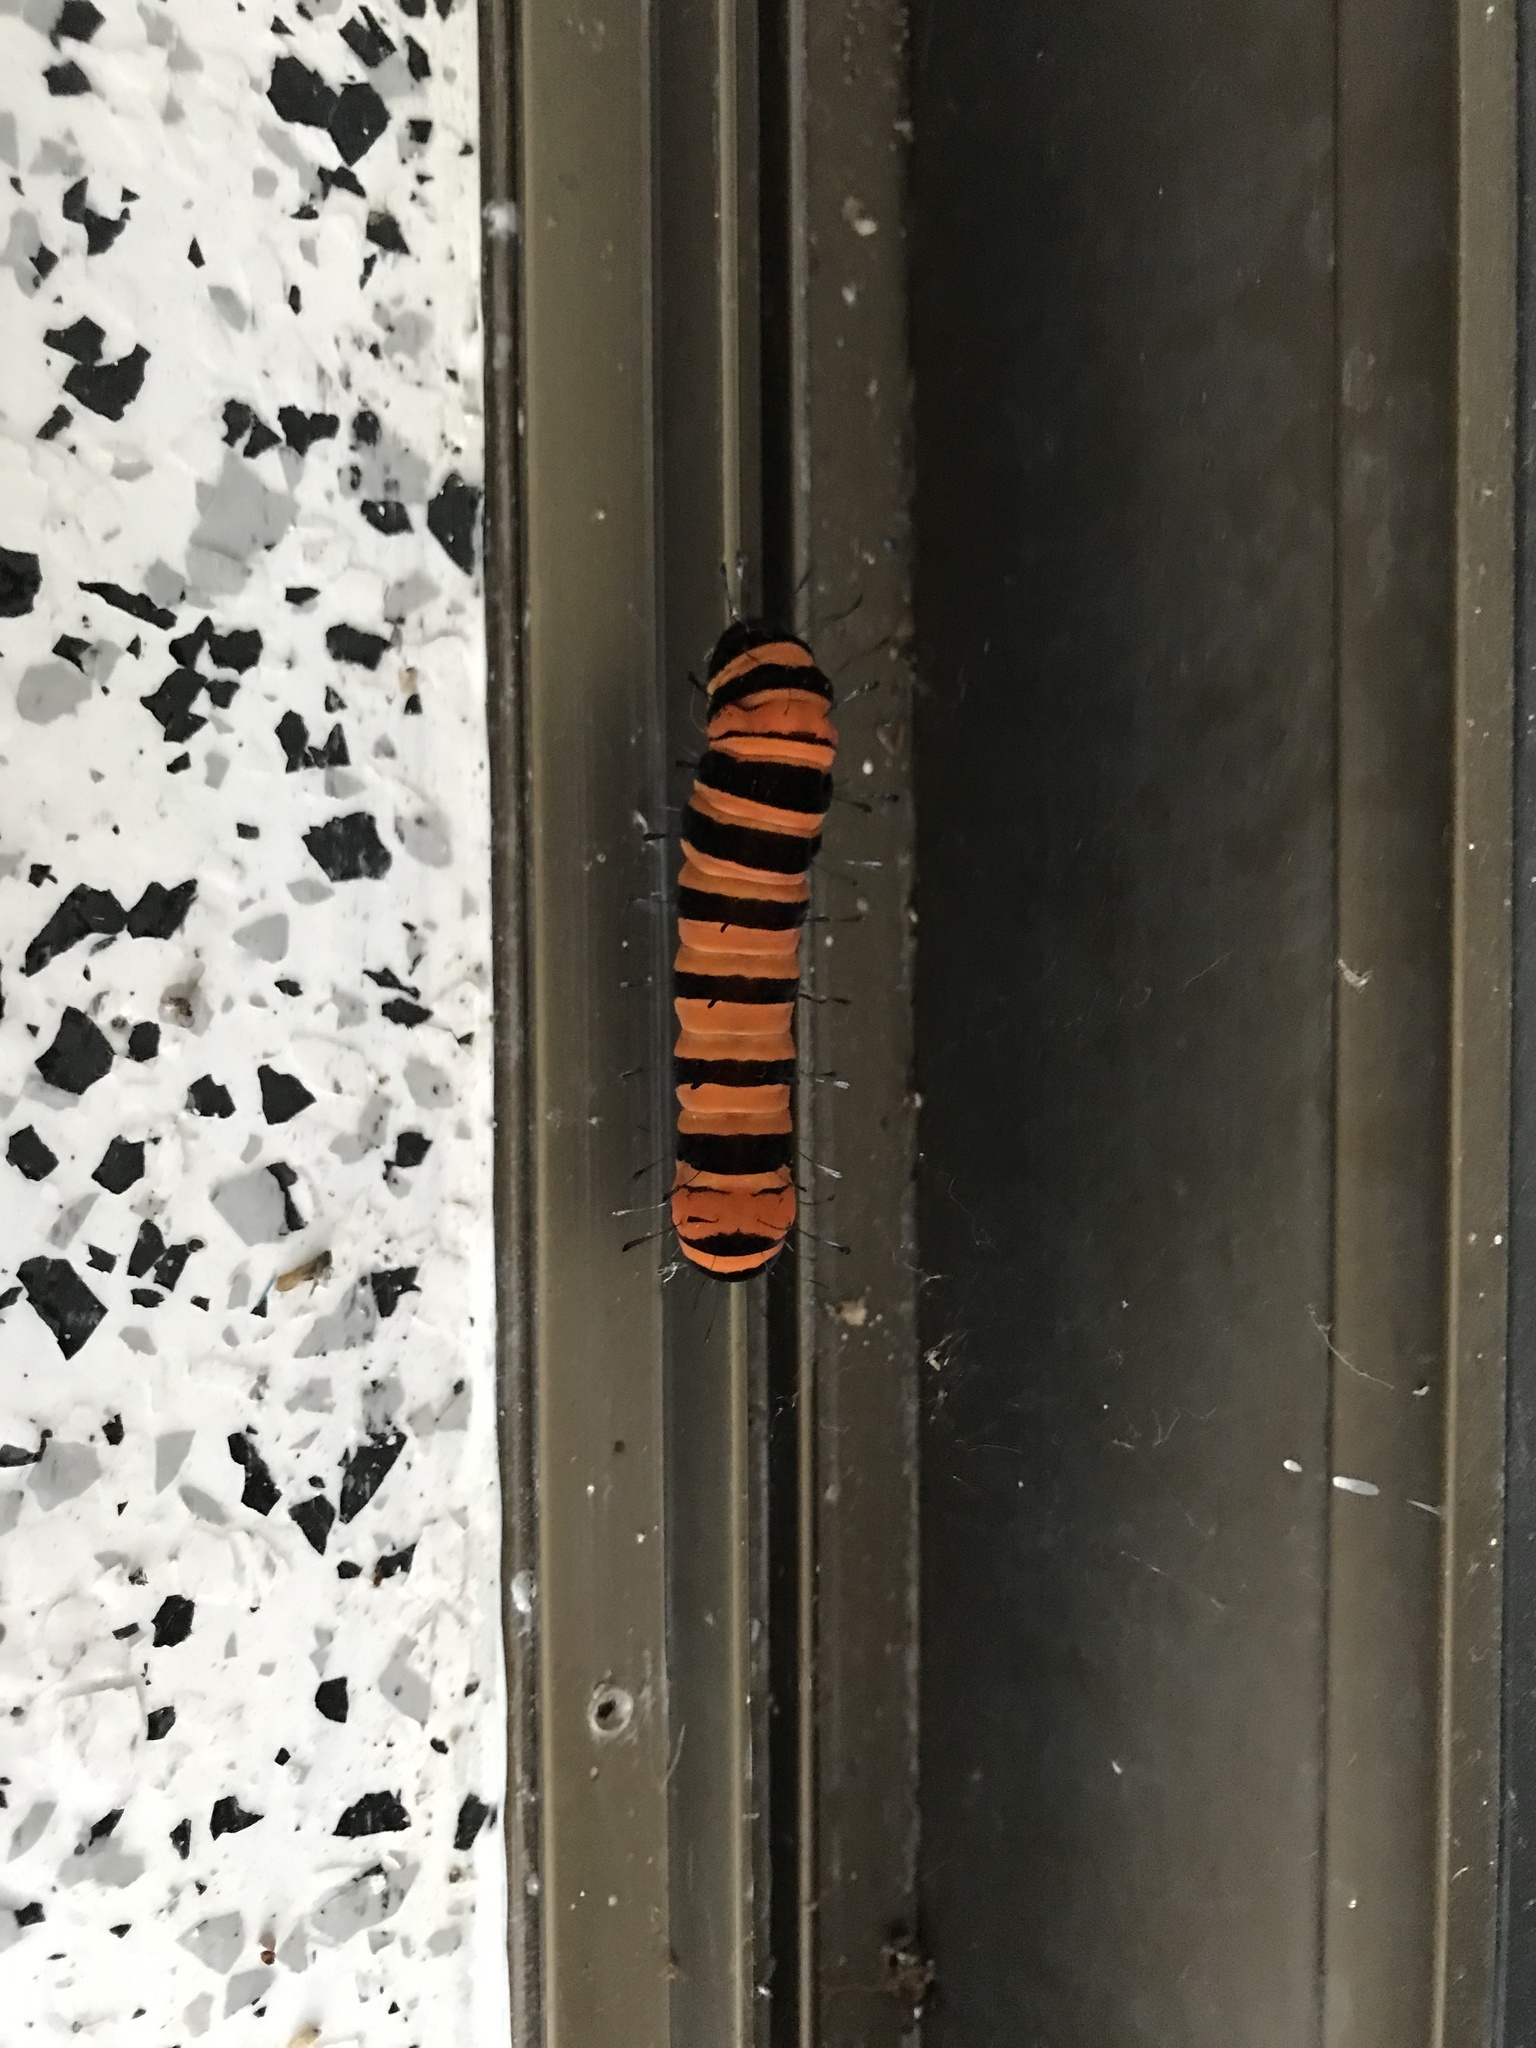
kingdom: Animalia
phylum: Arthropoda
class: Insecta
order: Lepidoptera
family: Noctuidae
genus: Agarista
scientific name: Agarista agricola
